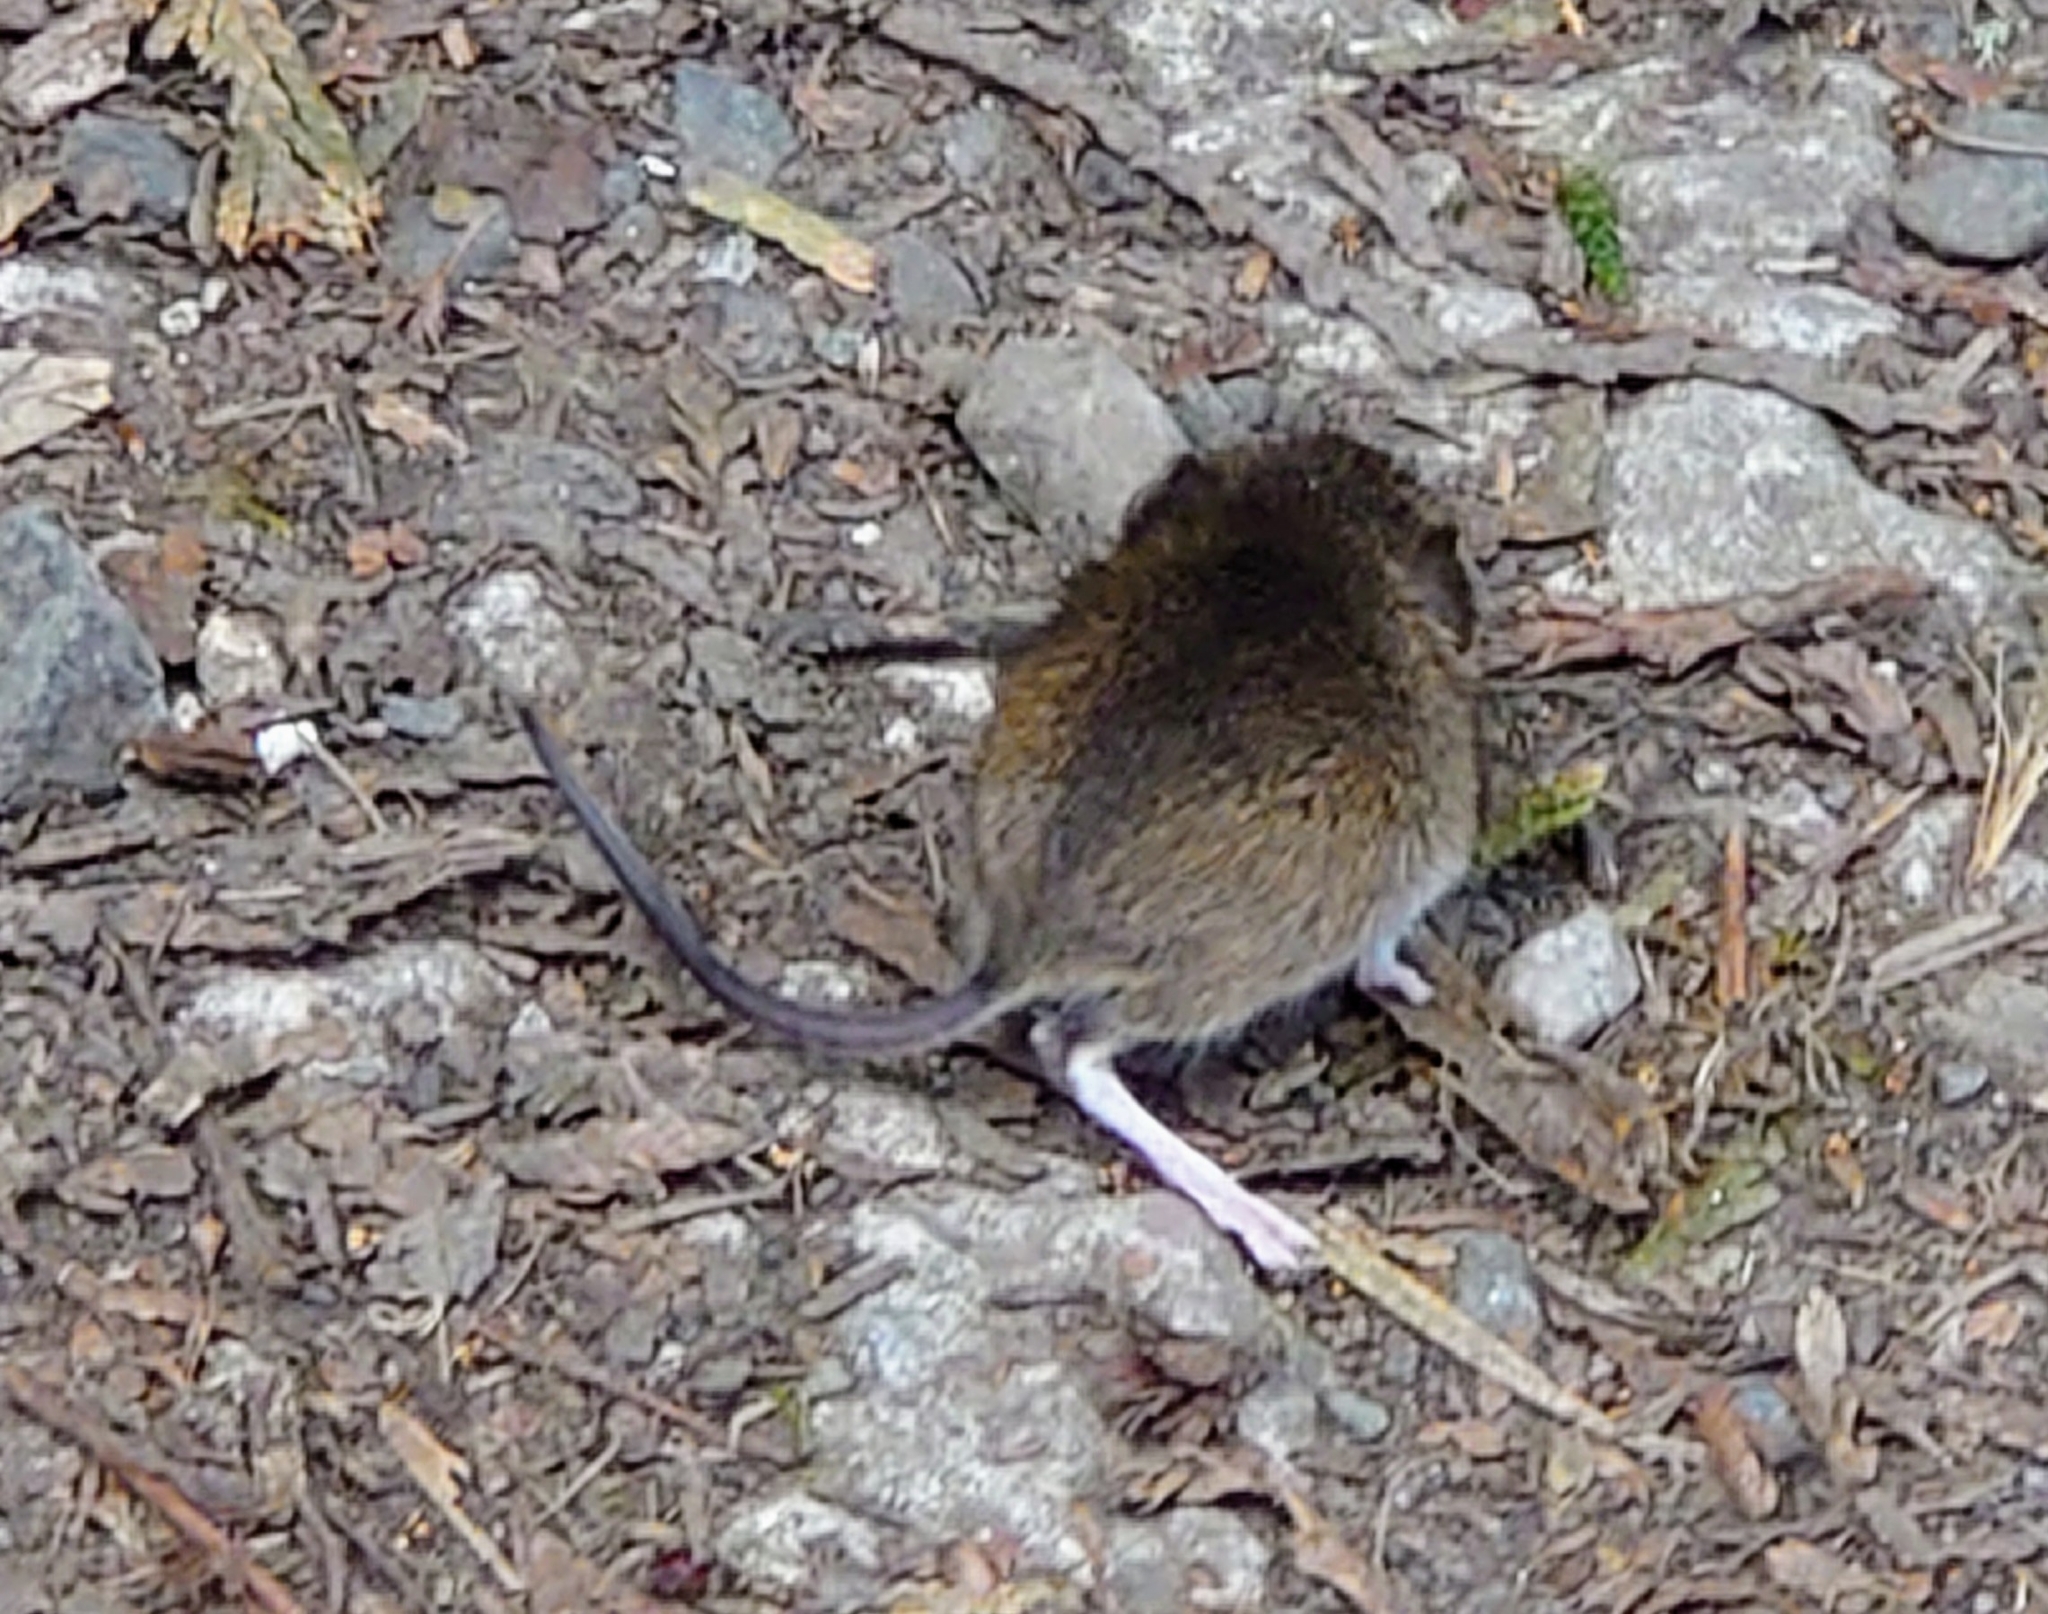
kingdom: Animalia
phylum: Chordata
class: Mammalia
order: Rodentia
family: Muridae
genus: Apodemus
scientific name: Apodemus sylvaticus
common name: Wood mouse
